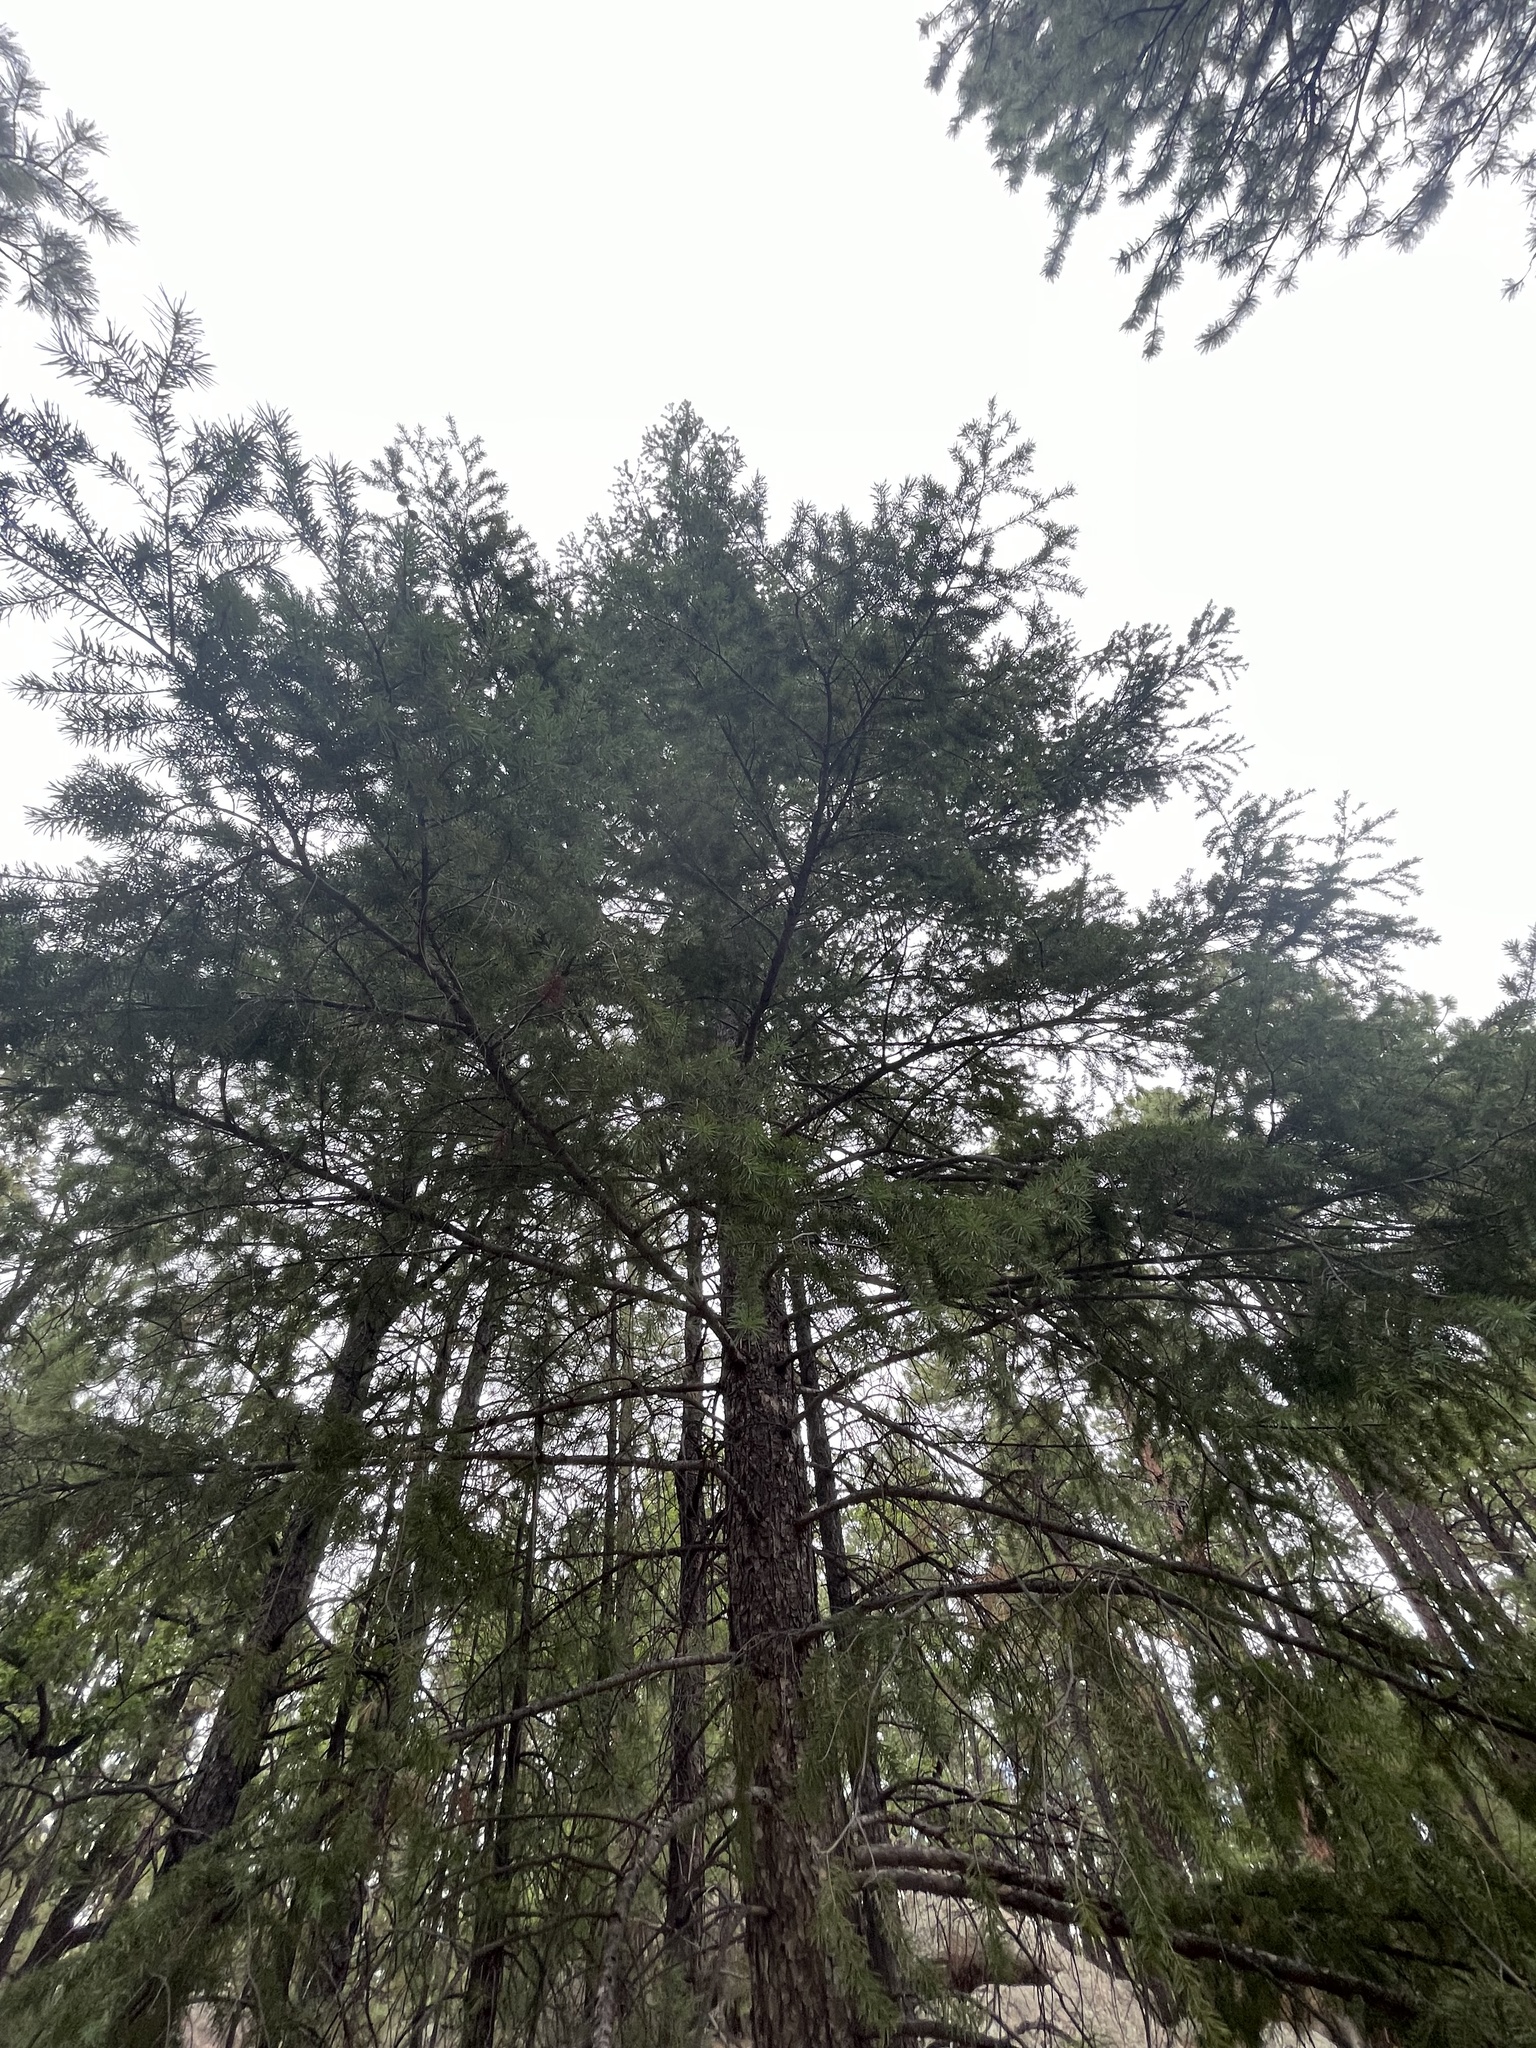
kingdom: Plantae
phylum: Tracheophyta
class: Pinopsida
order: Pinales
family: Pinaceae
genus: Pseudotsuga
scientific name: Pseudotsuga menziesii
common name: Douglas fir
